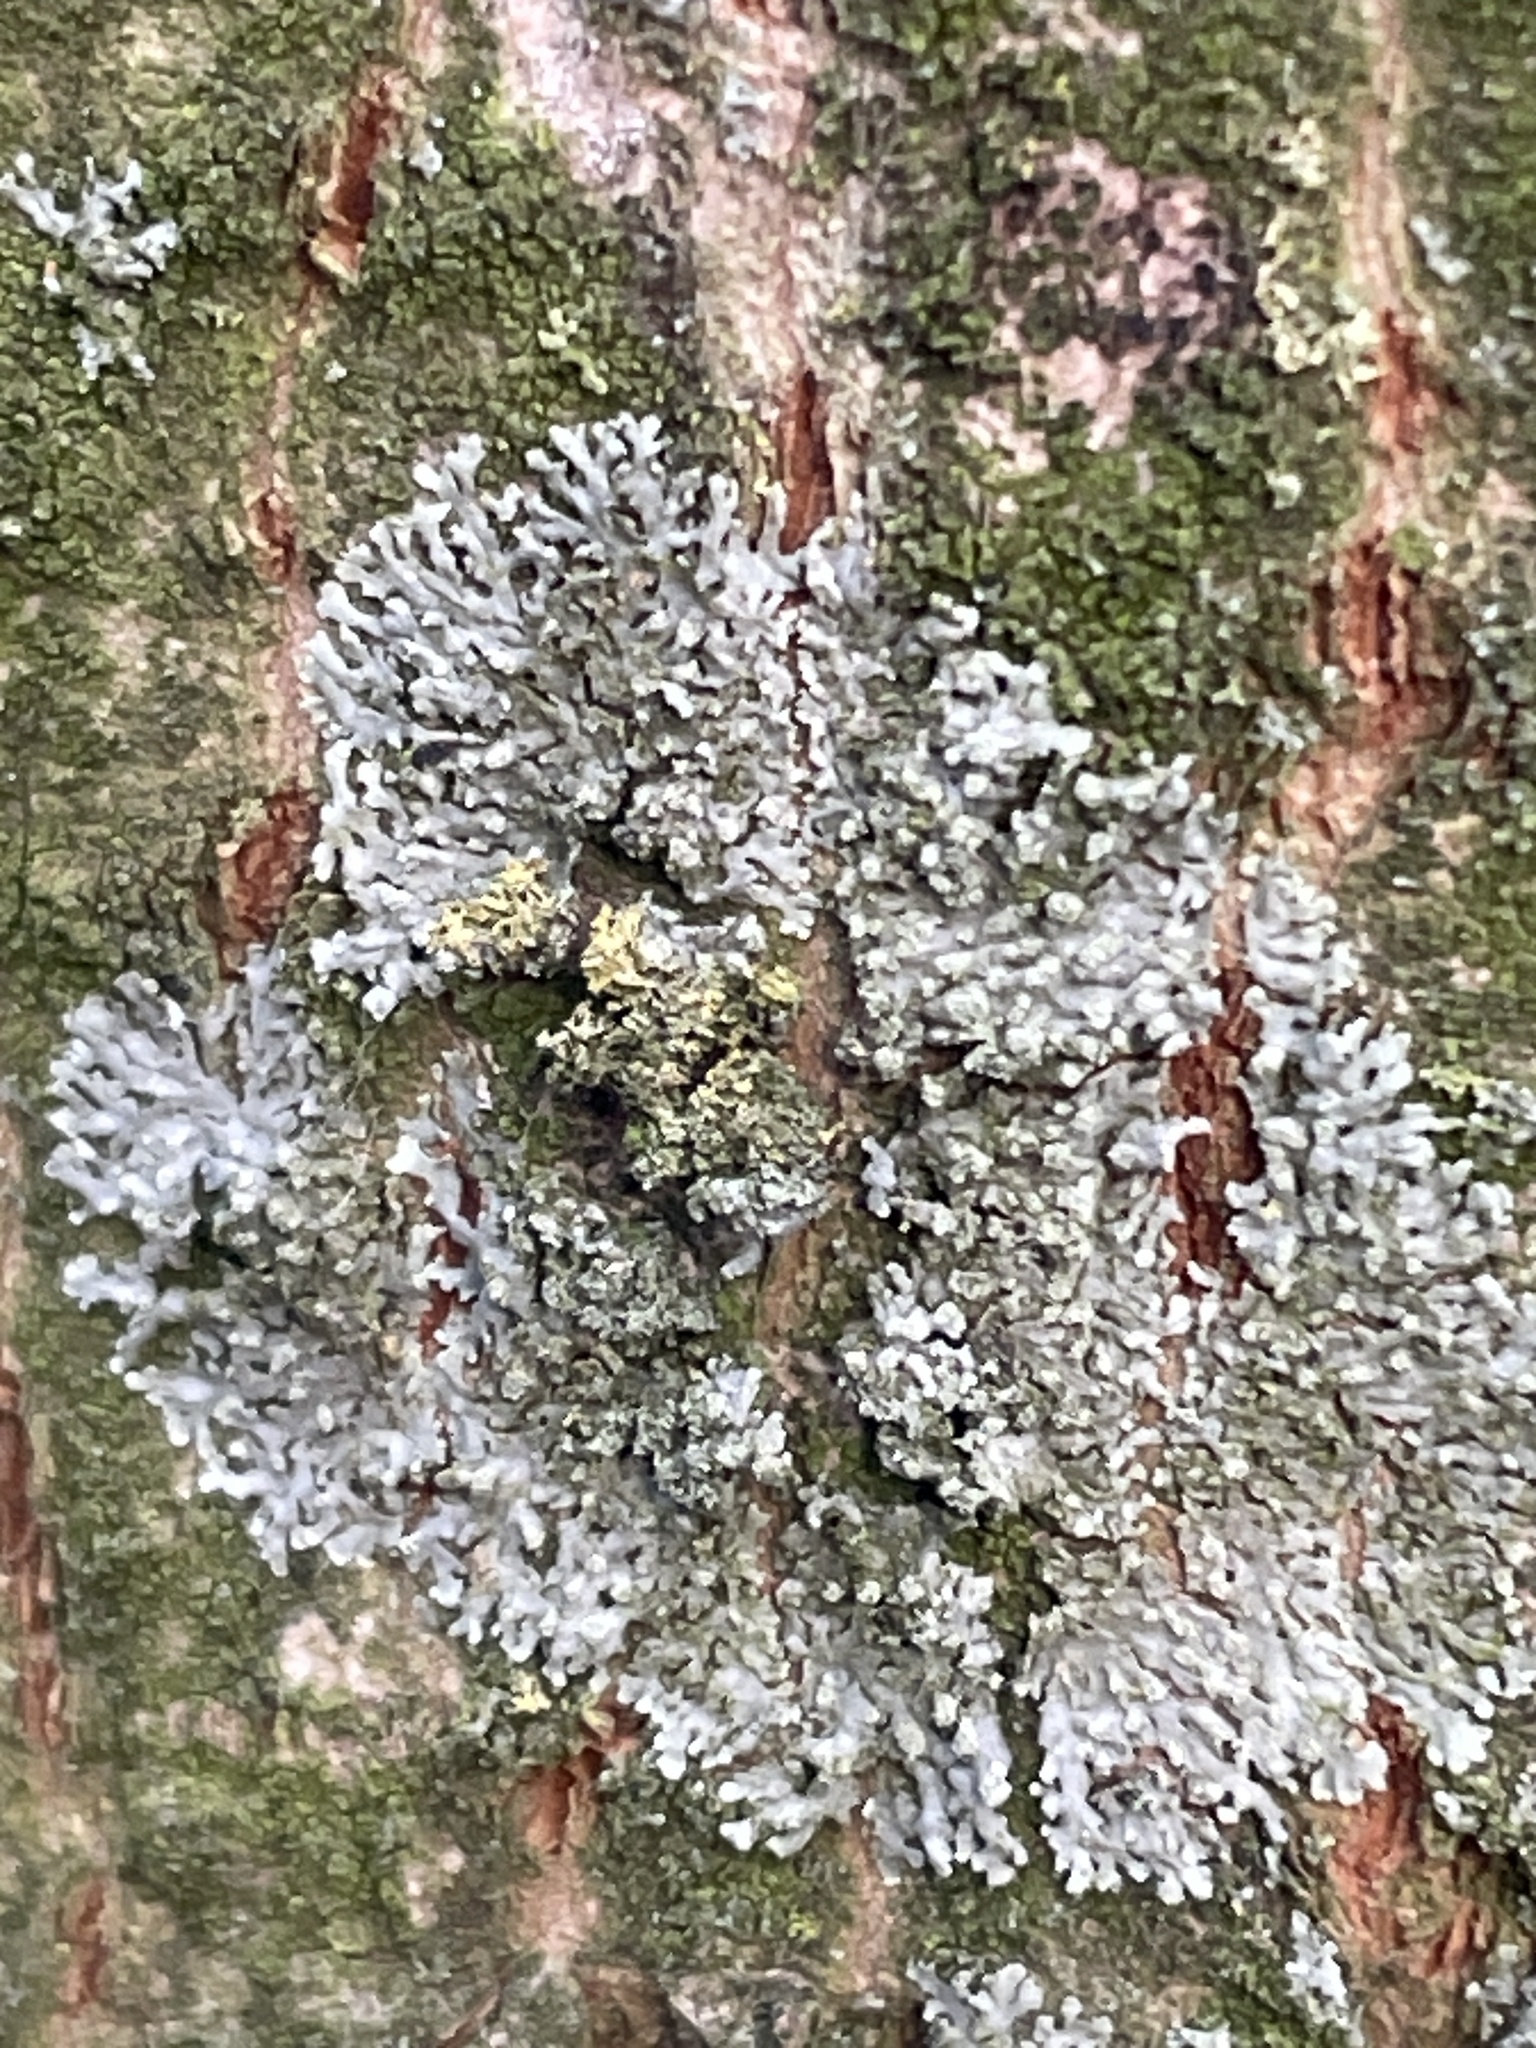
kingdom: Fungi
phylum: Ascomycota
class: Lecanoromycetes
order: Caliciales
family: Physciaceae
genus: Hyperphyscia
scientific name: Hyperphyscia adglutinata
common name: Grainy shadow-crust lichen
